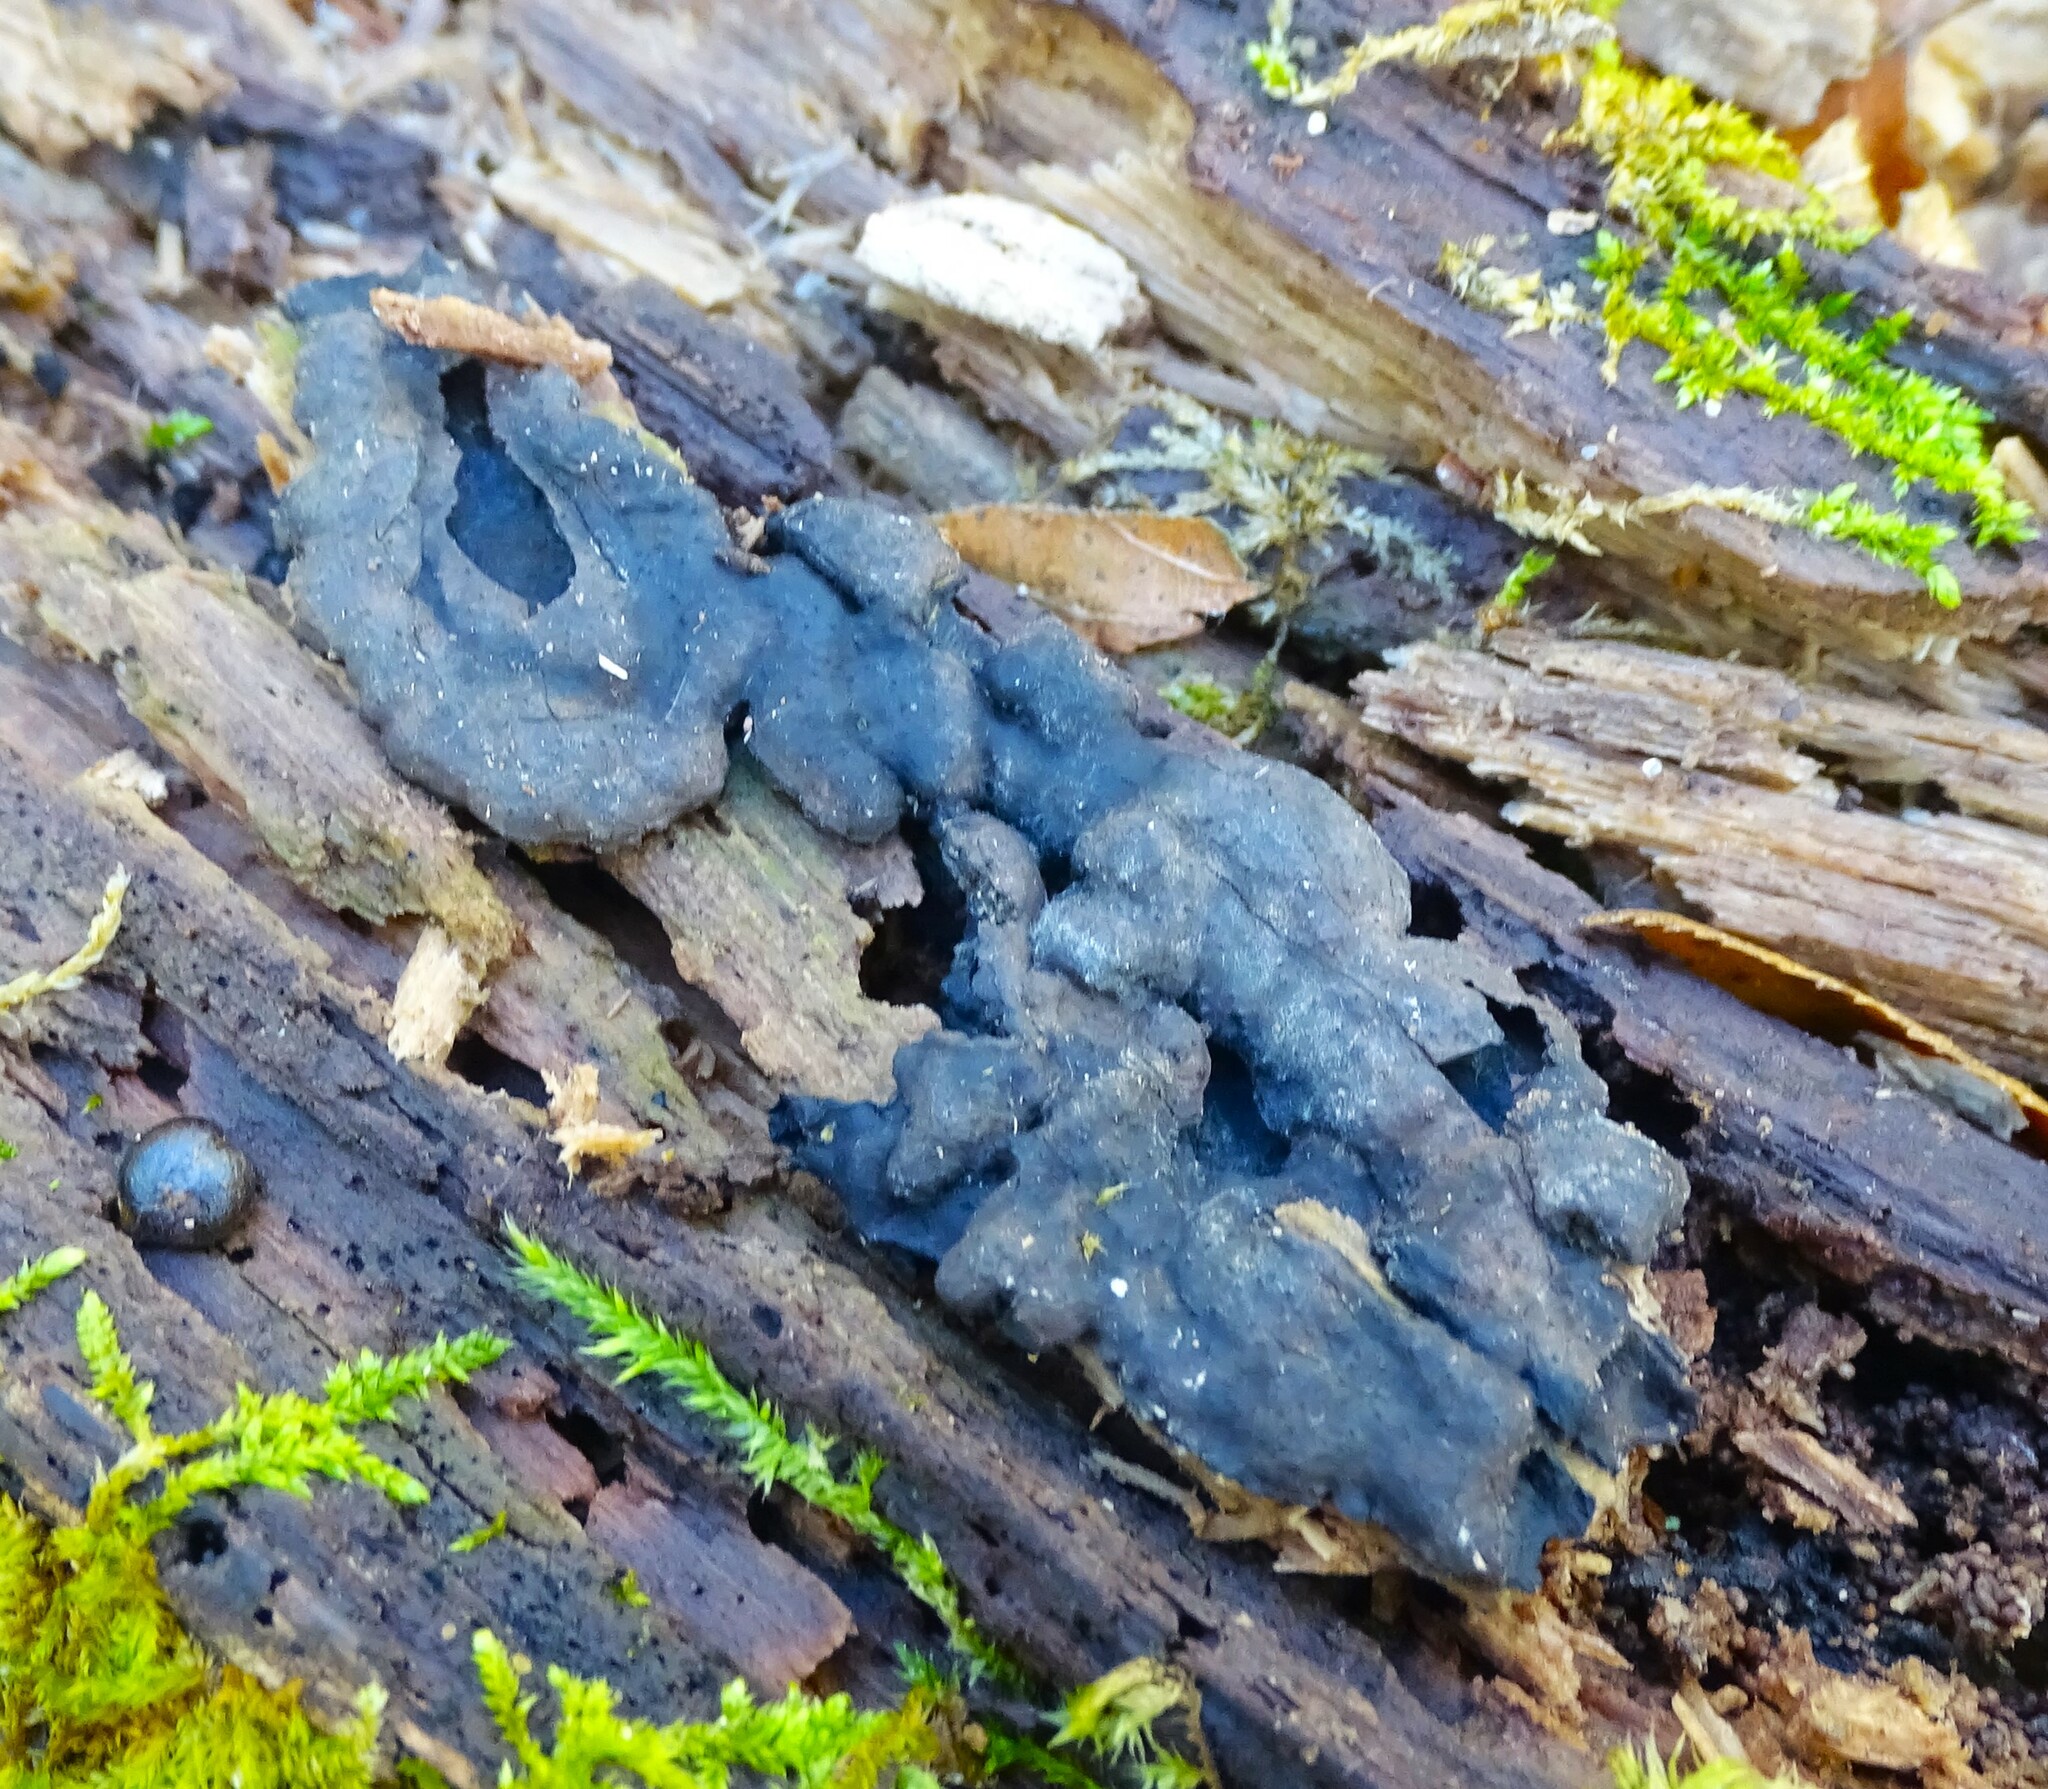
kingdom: Fungi
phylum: Ascomycota
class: Sordariomycetes
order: Xylariales
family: Xylariaceae
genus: Kretzschmaria
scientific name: Kretzschmaria deusta
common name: Brittle cinder
